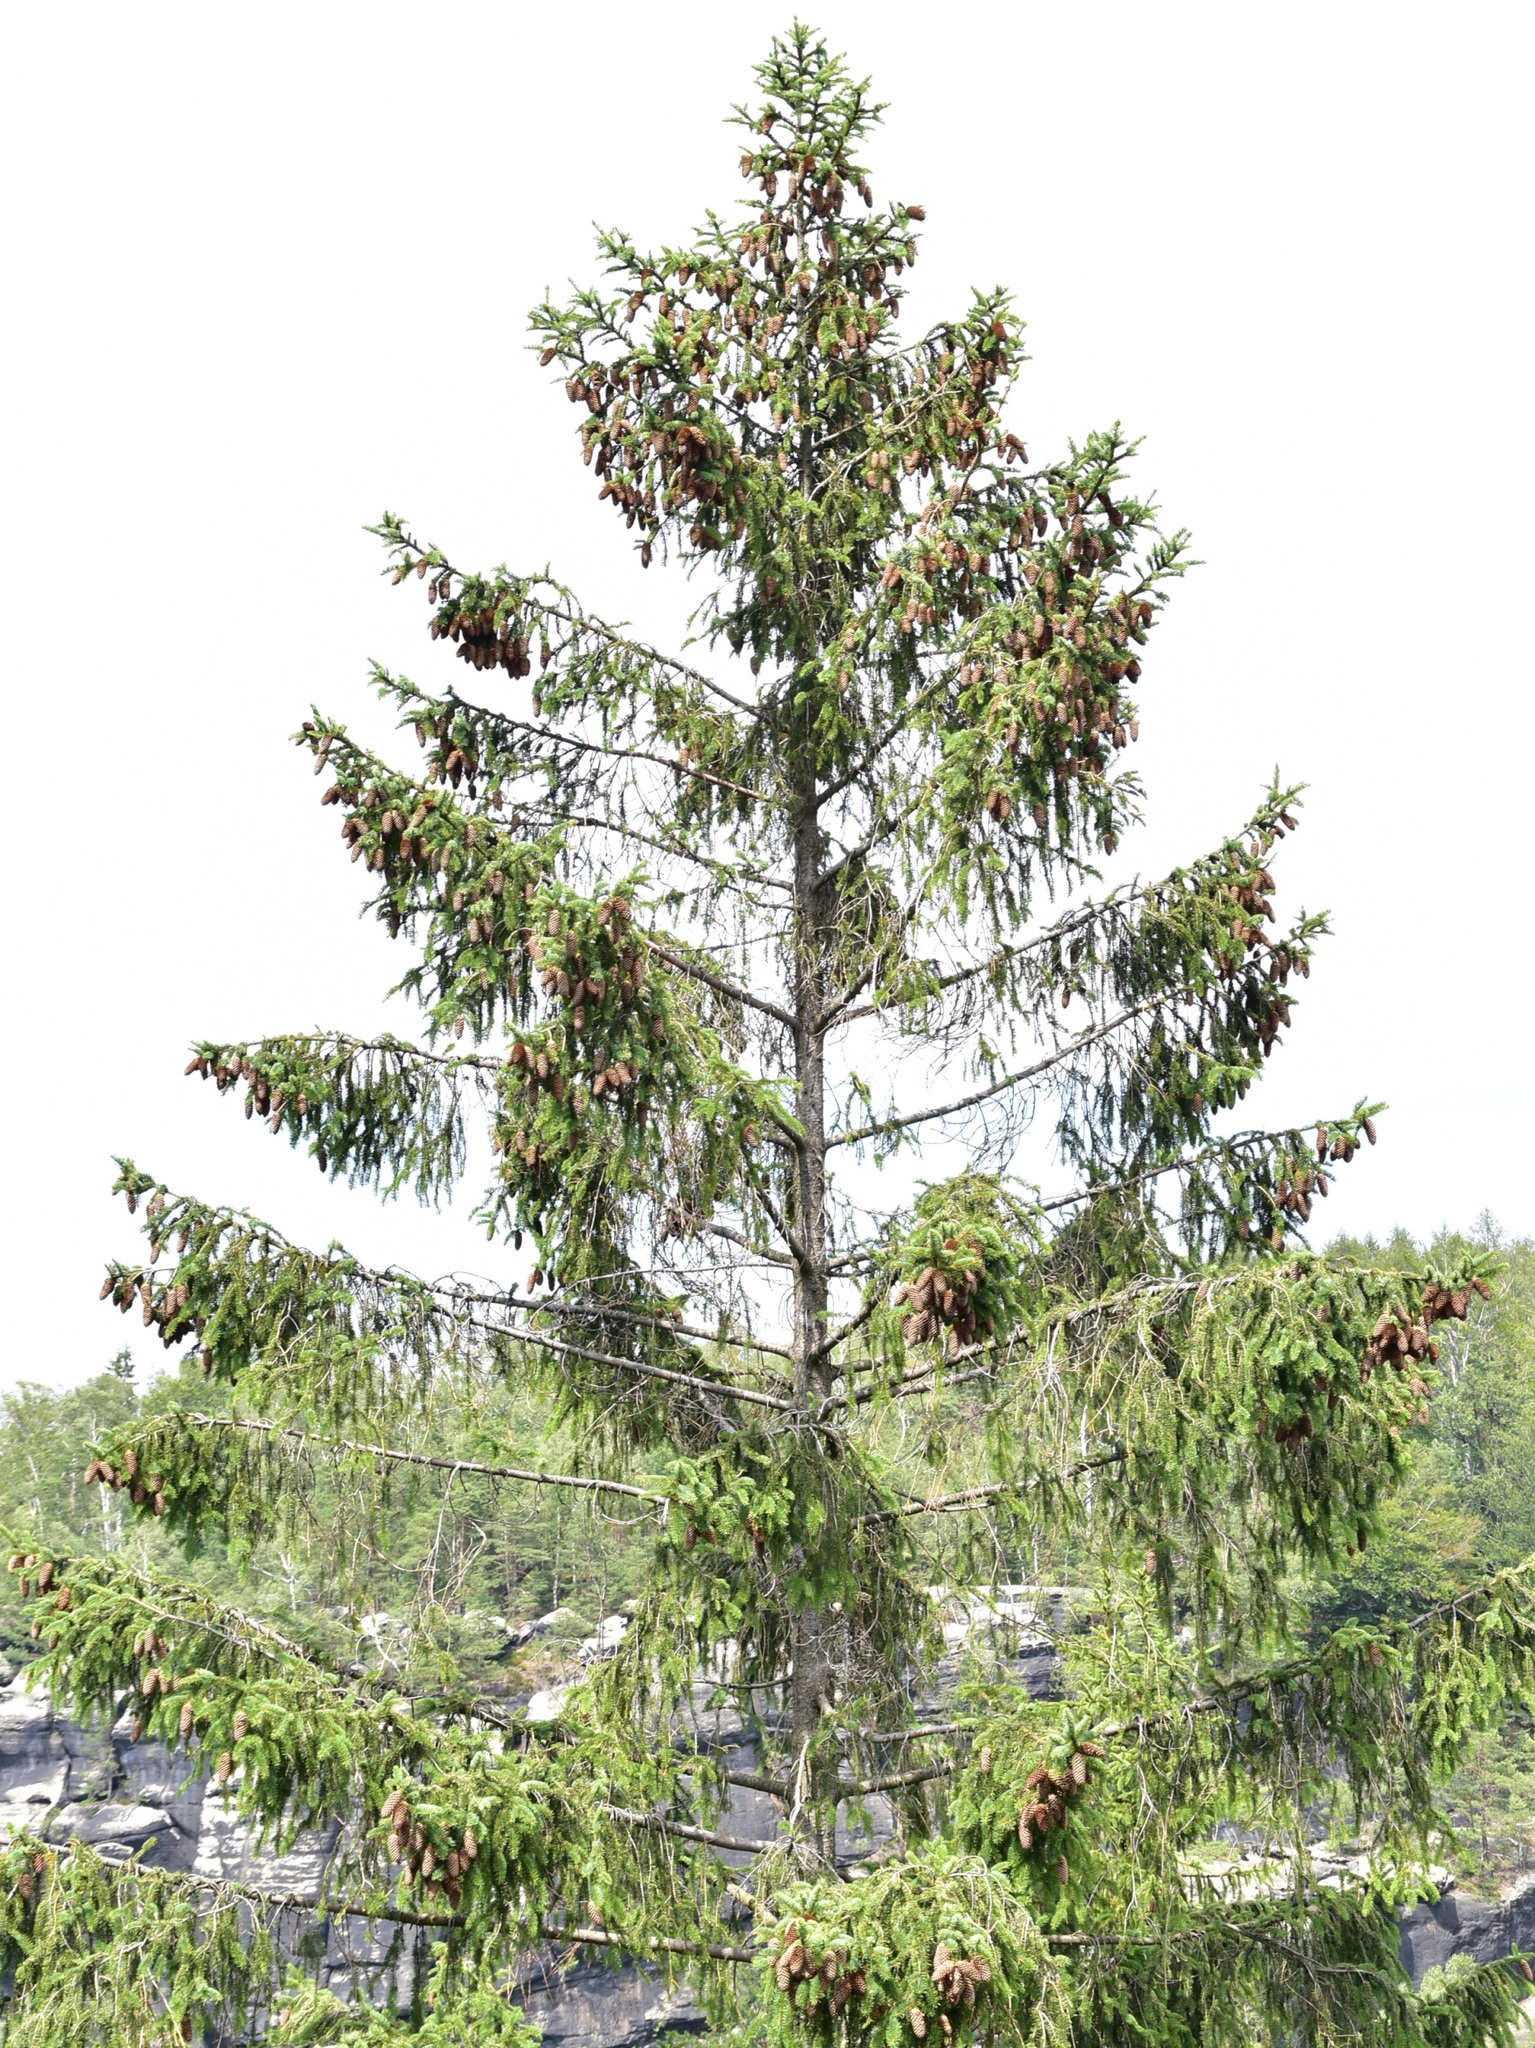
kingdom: Plantae
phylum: Tracheophyta
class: Pinopsida
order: Pinales
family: Pinaceae
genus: Picea
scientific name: Picea abies
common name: Norway spruce
